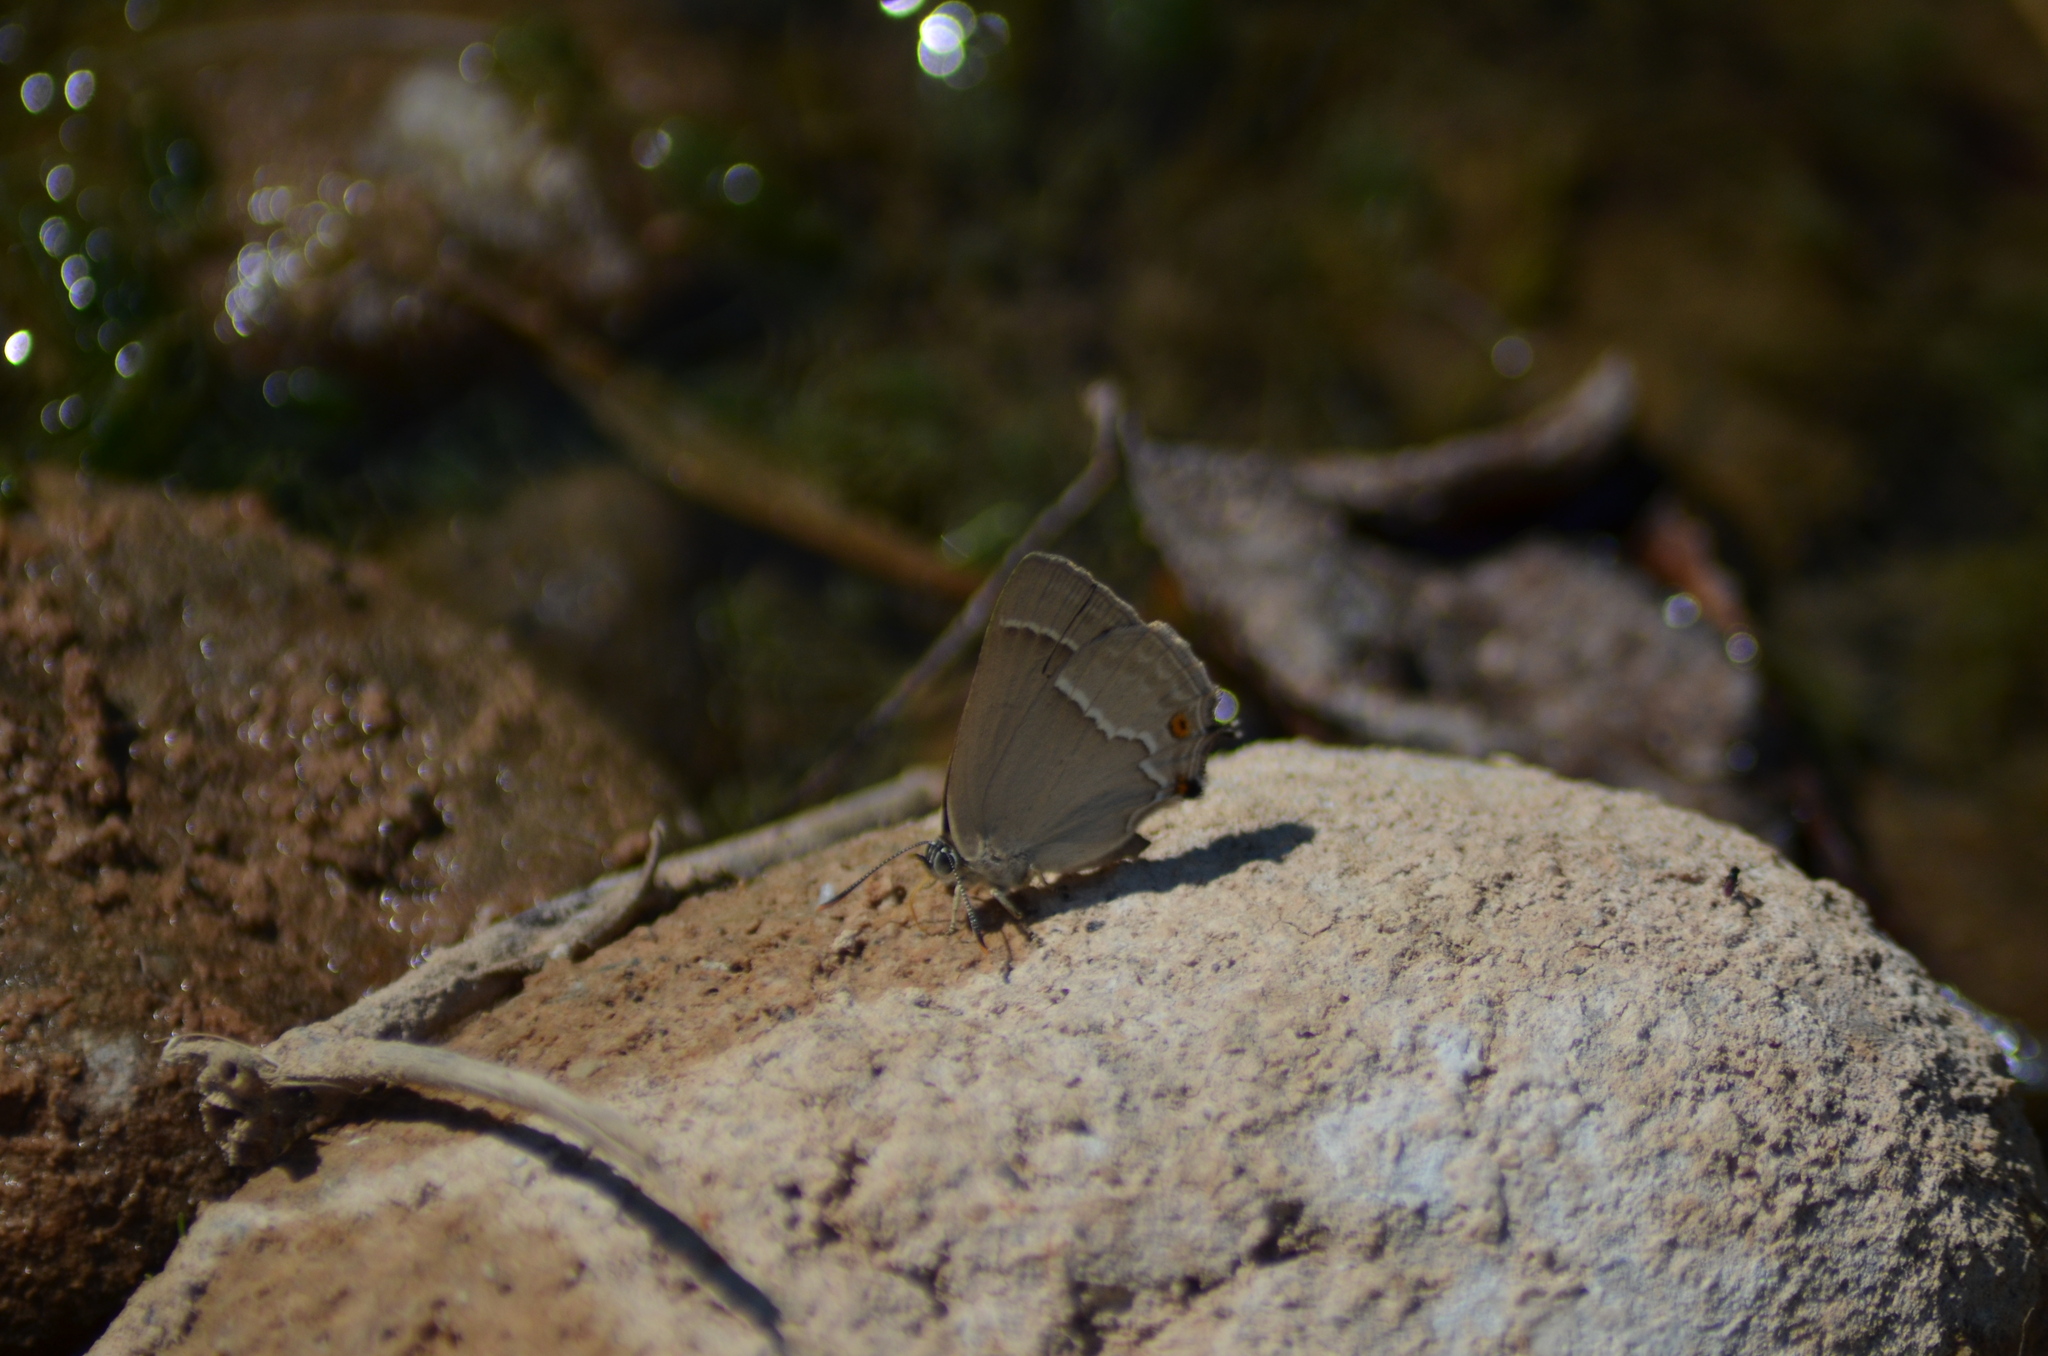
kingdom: Animalia
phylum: Arthropoda
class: Insecta
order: Lepidoptera
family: Lycaenidae
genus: Quercusia
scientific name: Quercusia quercus
